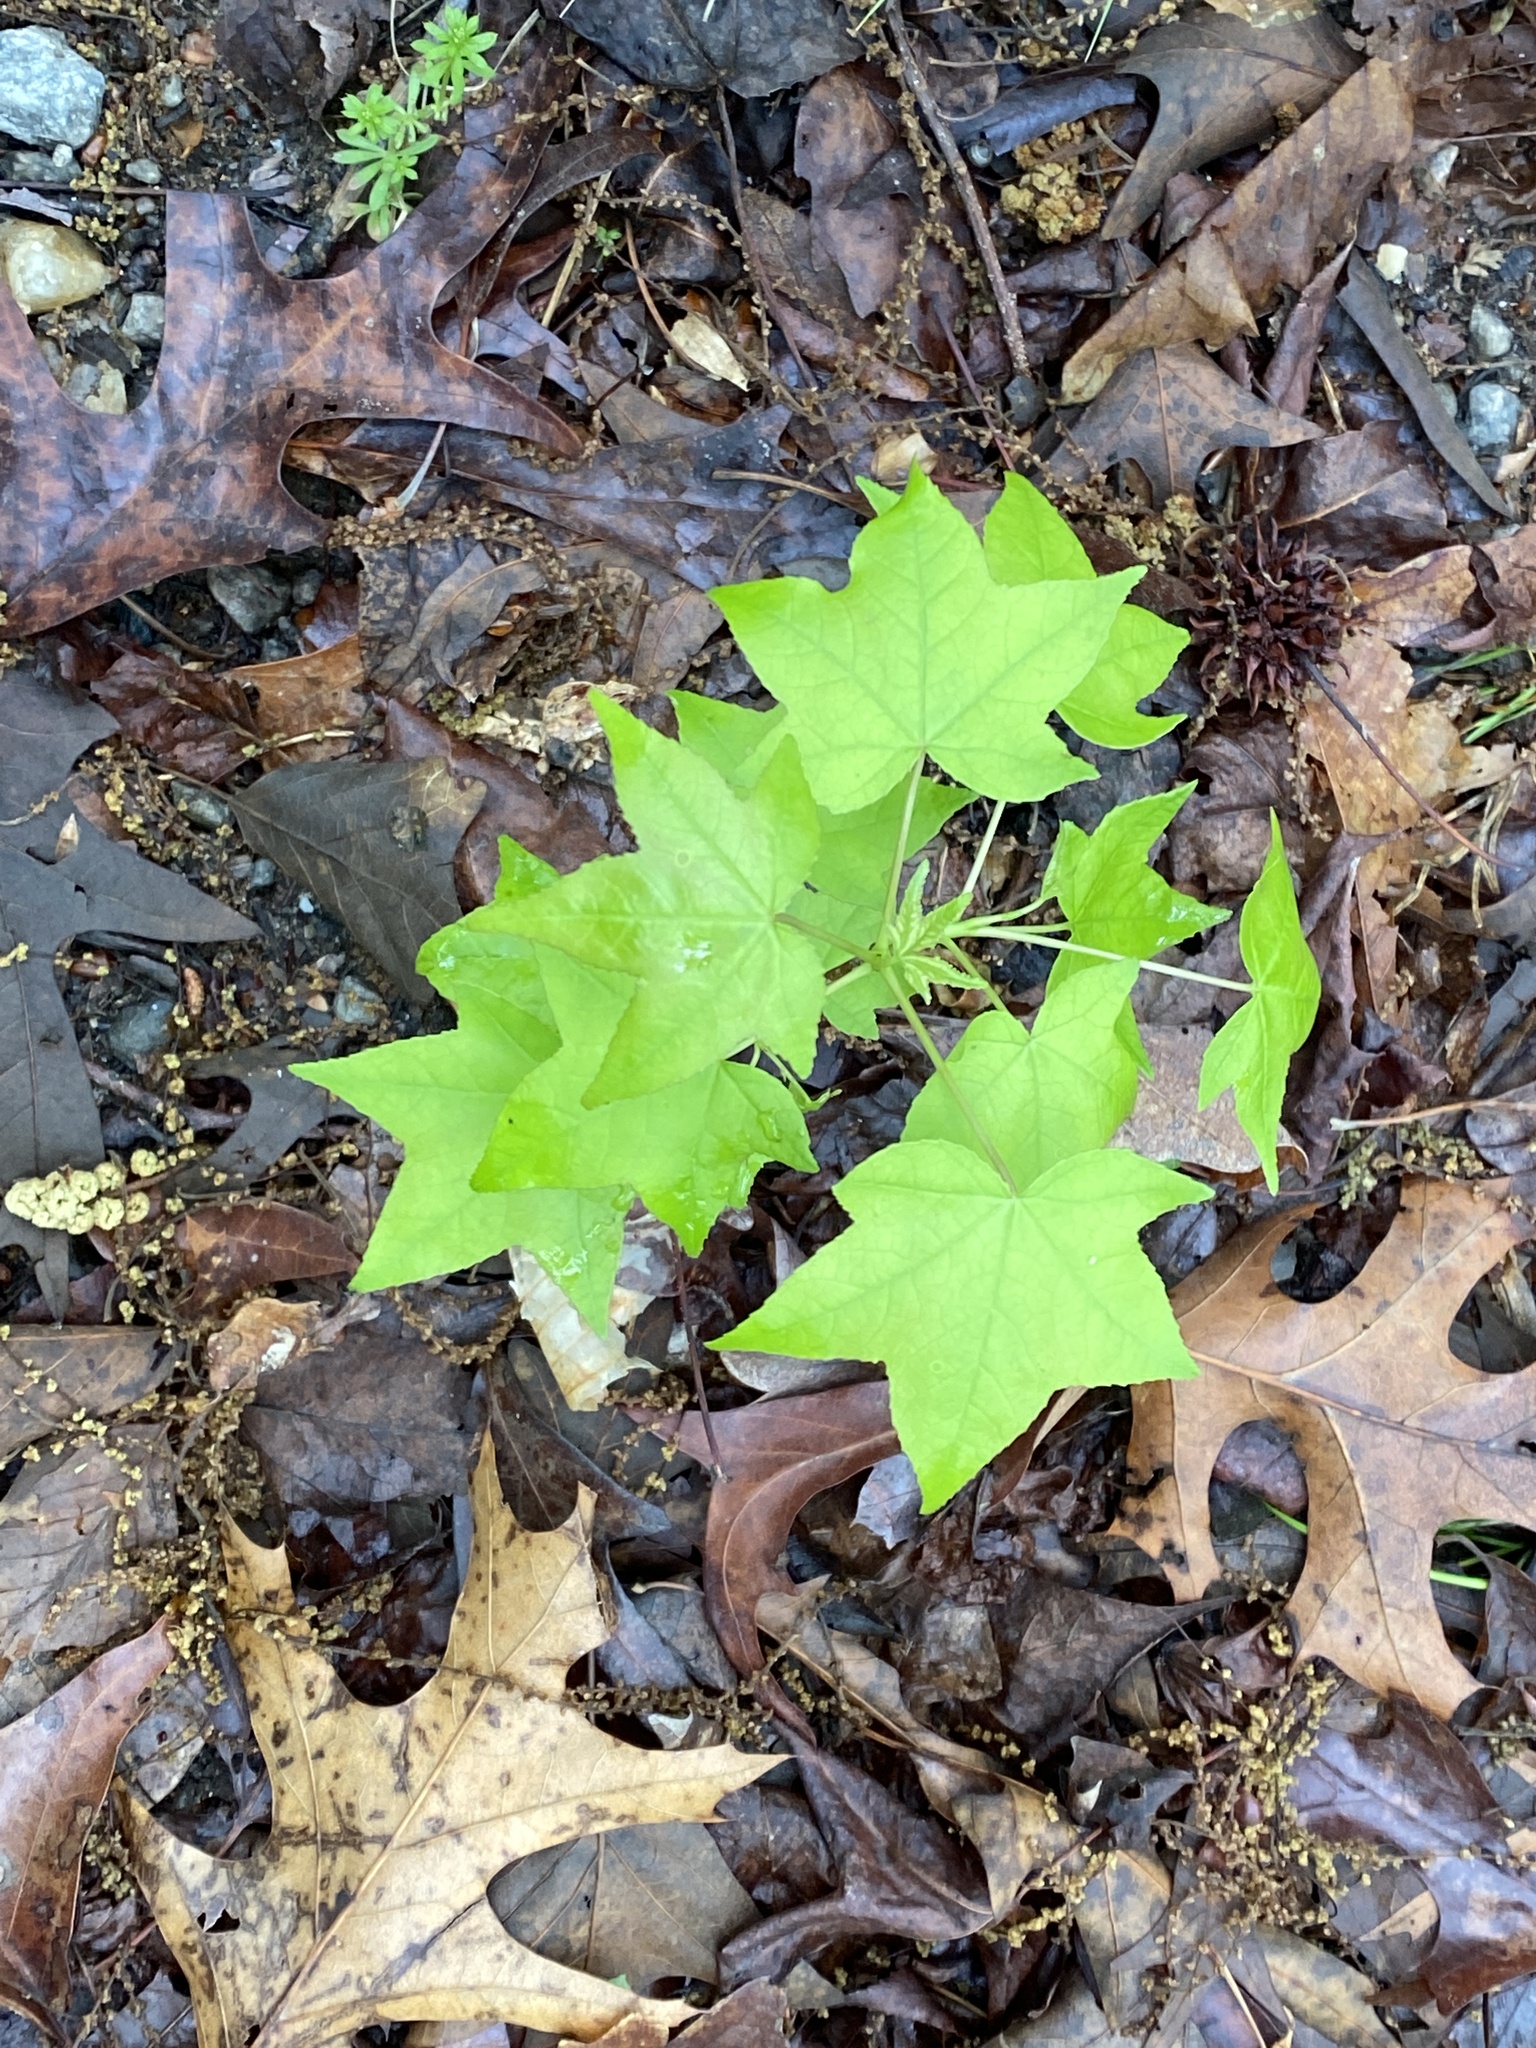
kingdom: Plantae
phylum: Tracheophyta
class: Magnoliopsida
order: Saxifragales
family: Altingiaceae
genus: Liquidambar
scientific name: Liquidambar styraciflua
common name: Sweet gum
